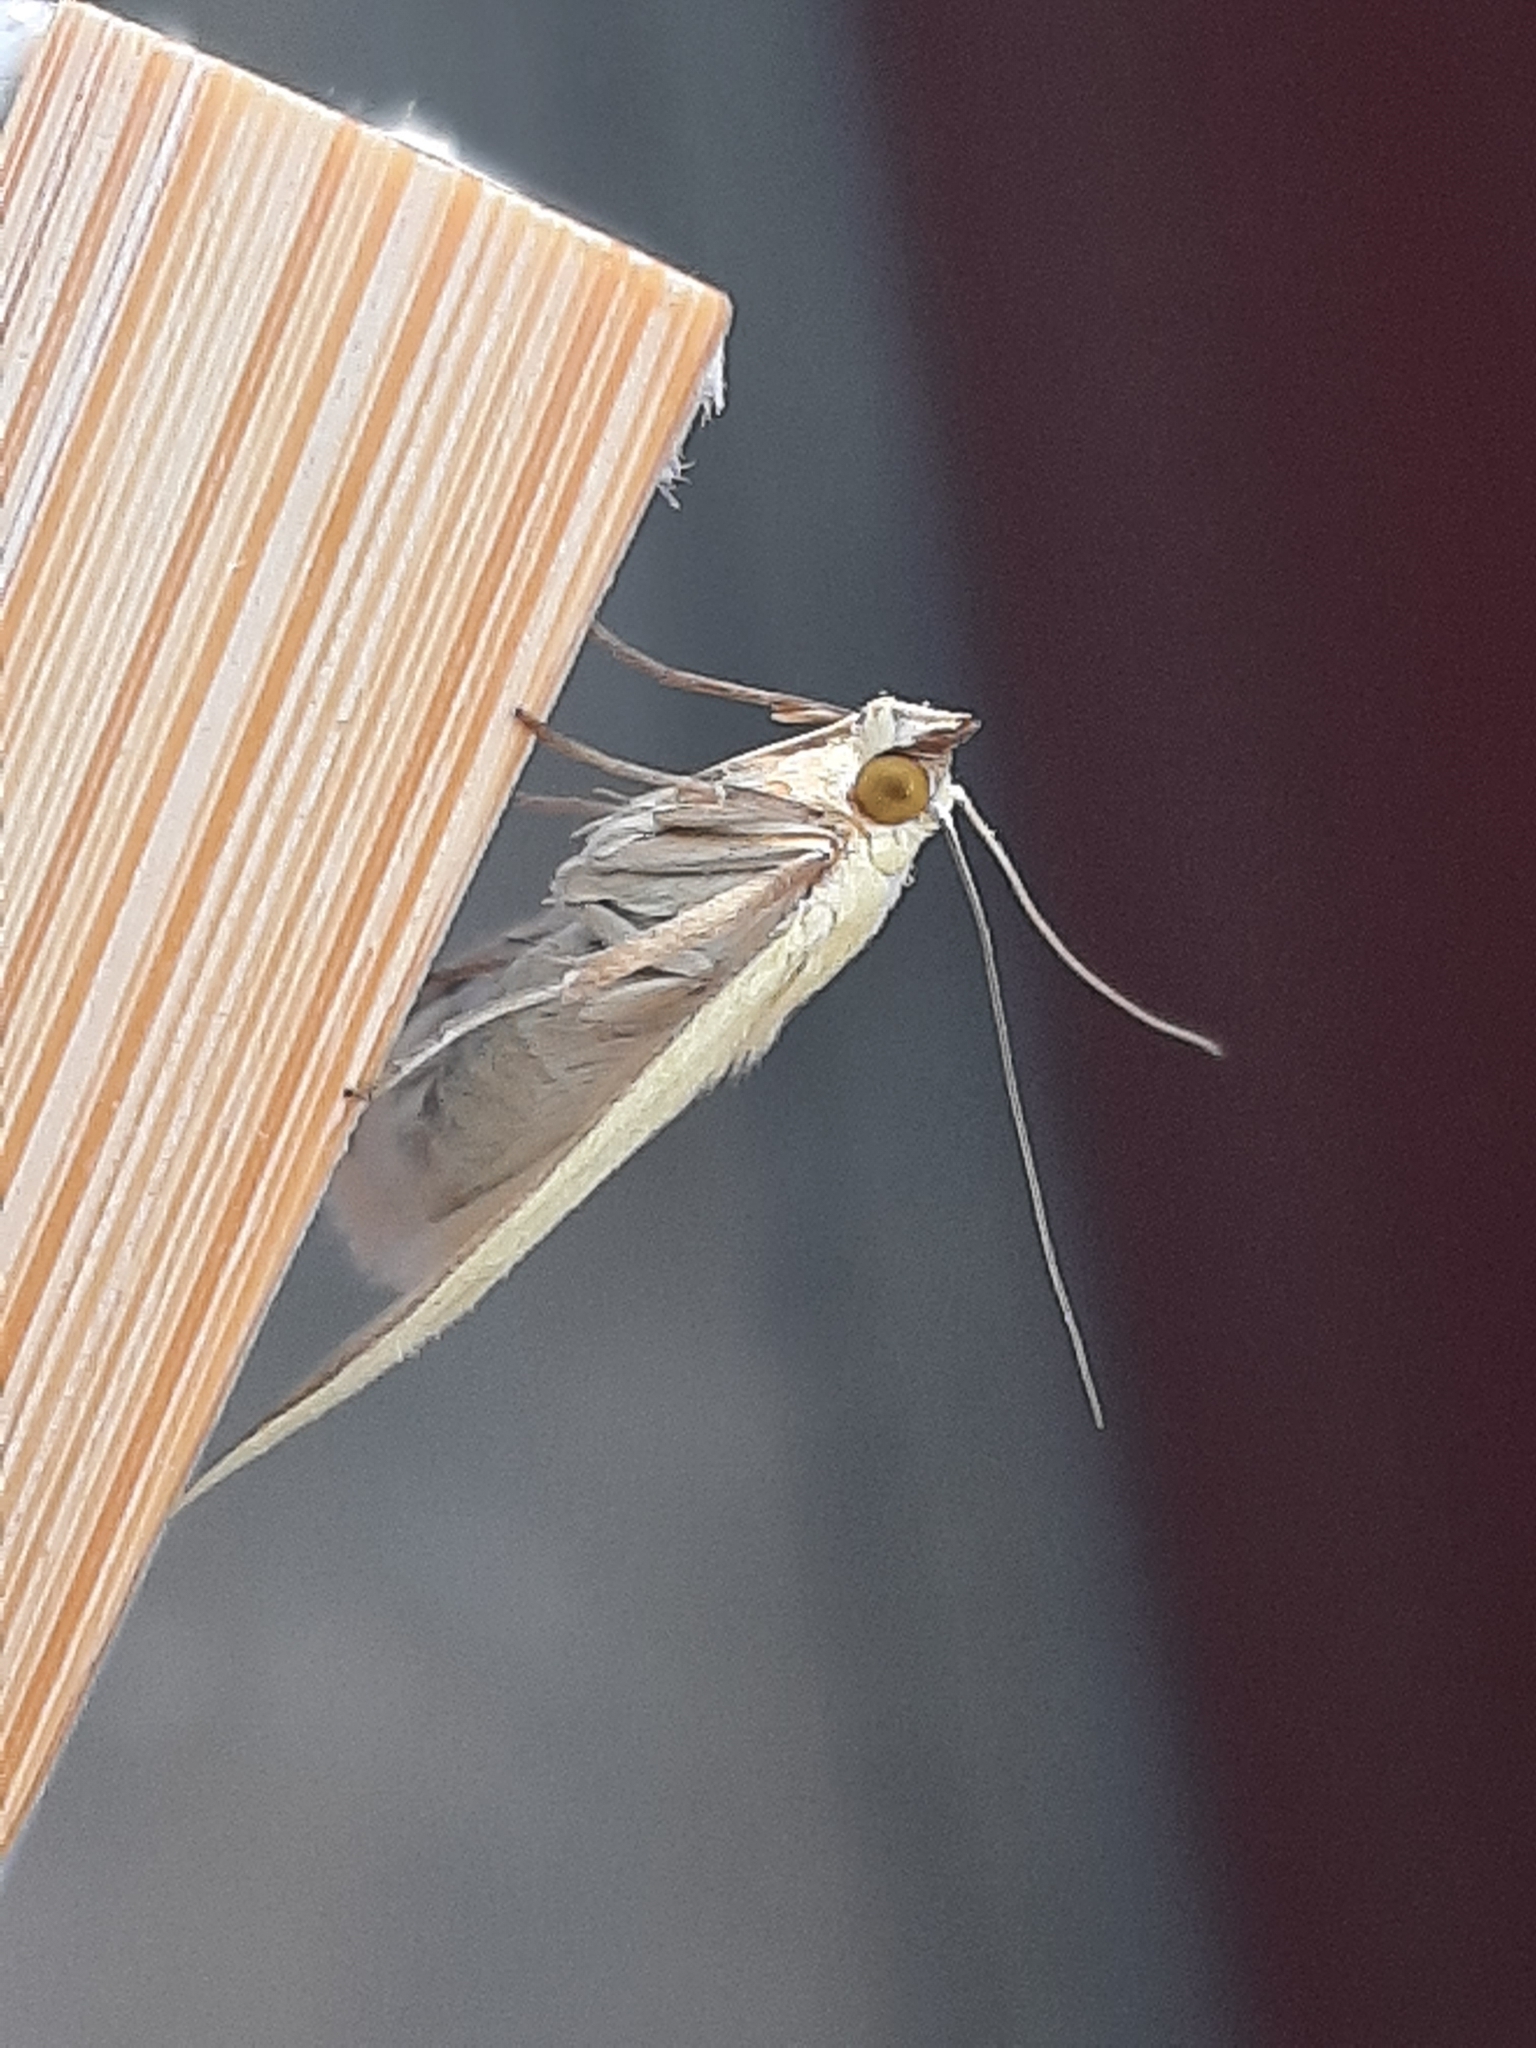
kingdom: Animalia
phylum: Arthropoda
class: Insecta
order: Lepidoptera
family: Crambidae
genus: Sitochroa
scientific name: Sitochroa palealis
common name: Greenish-yellow sitochroa moth
